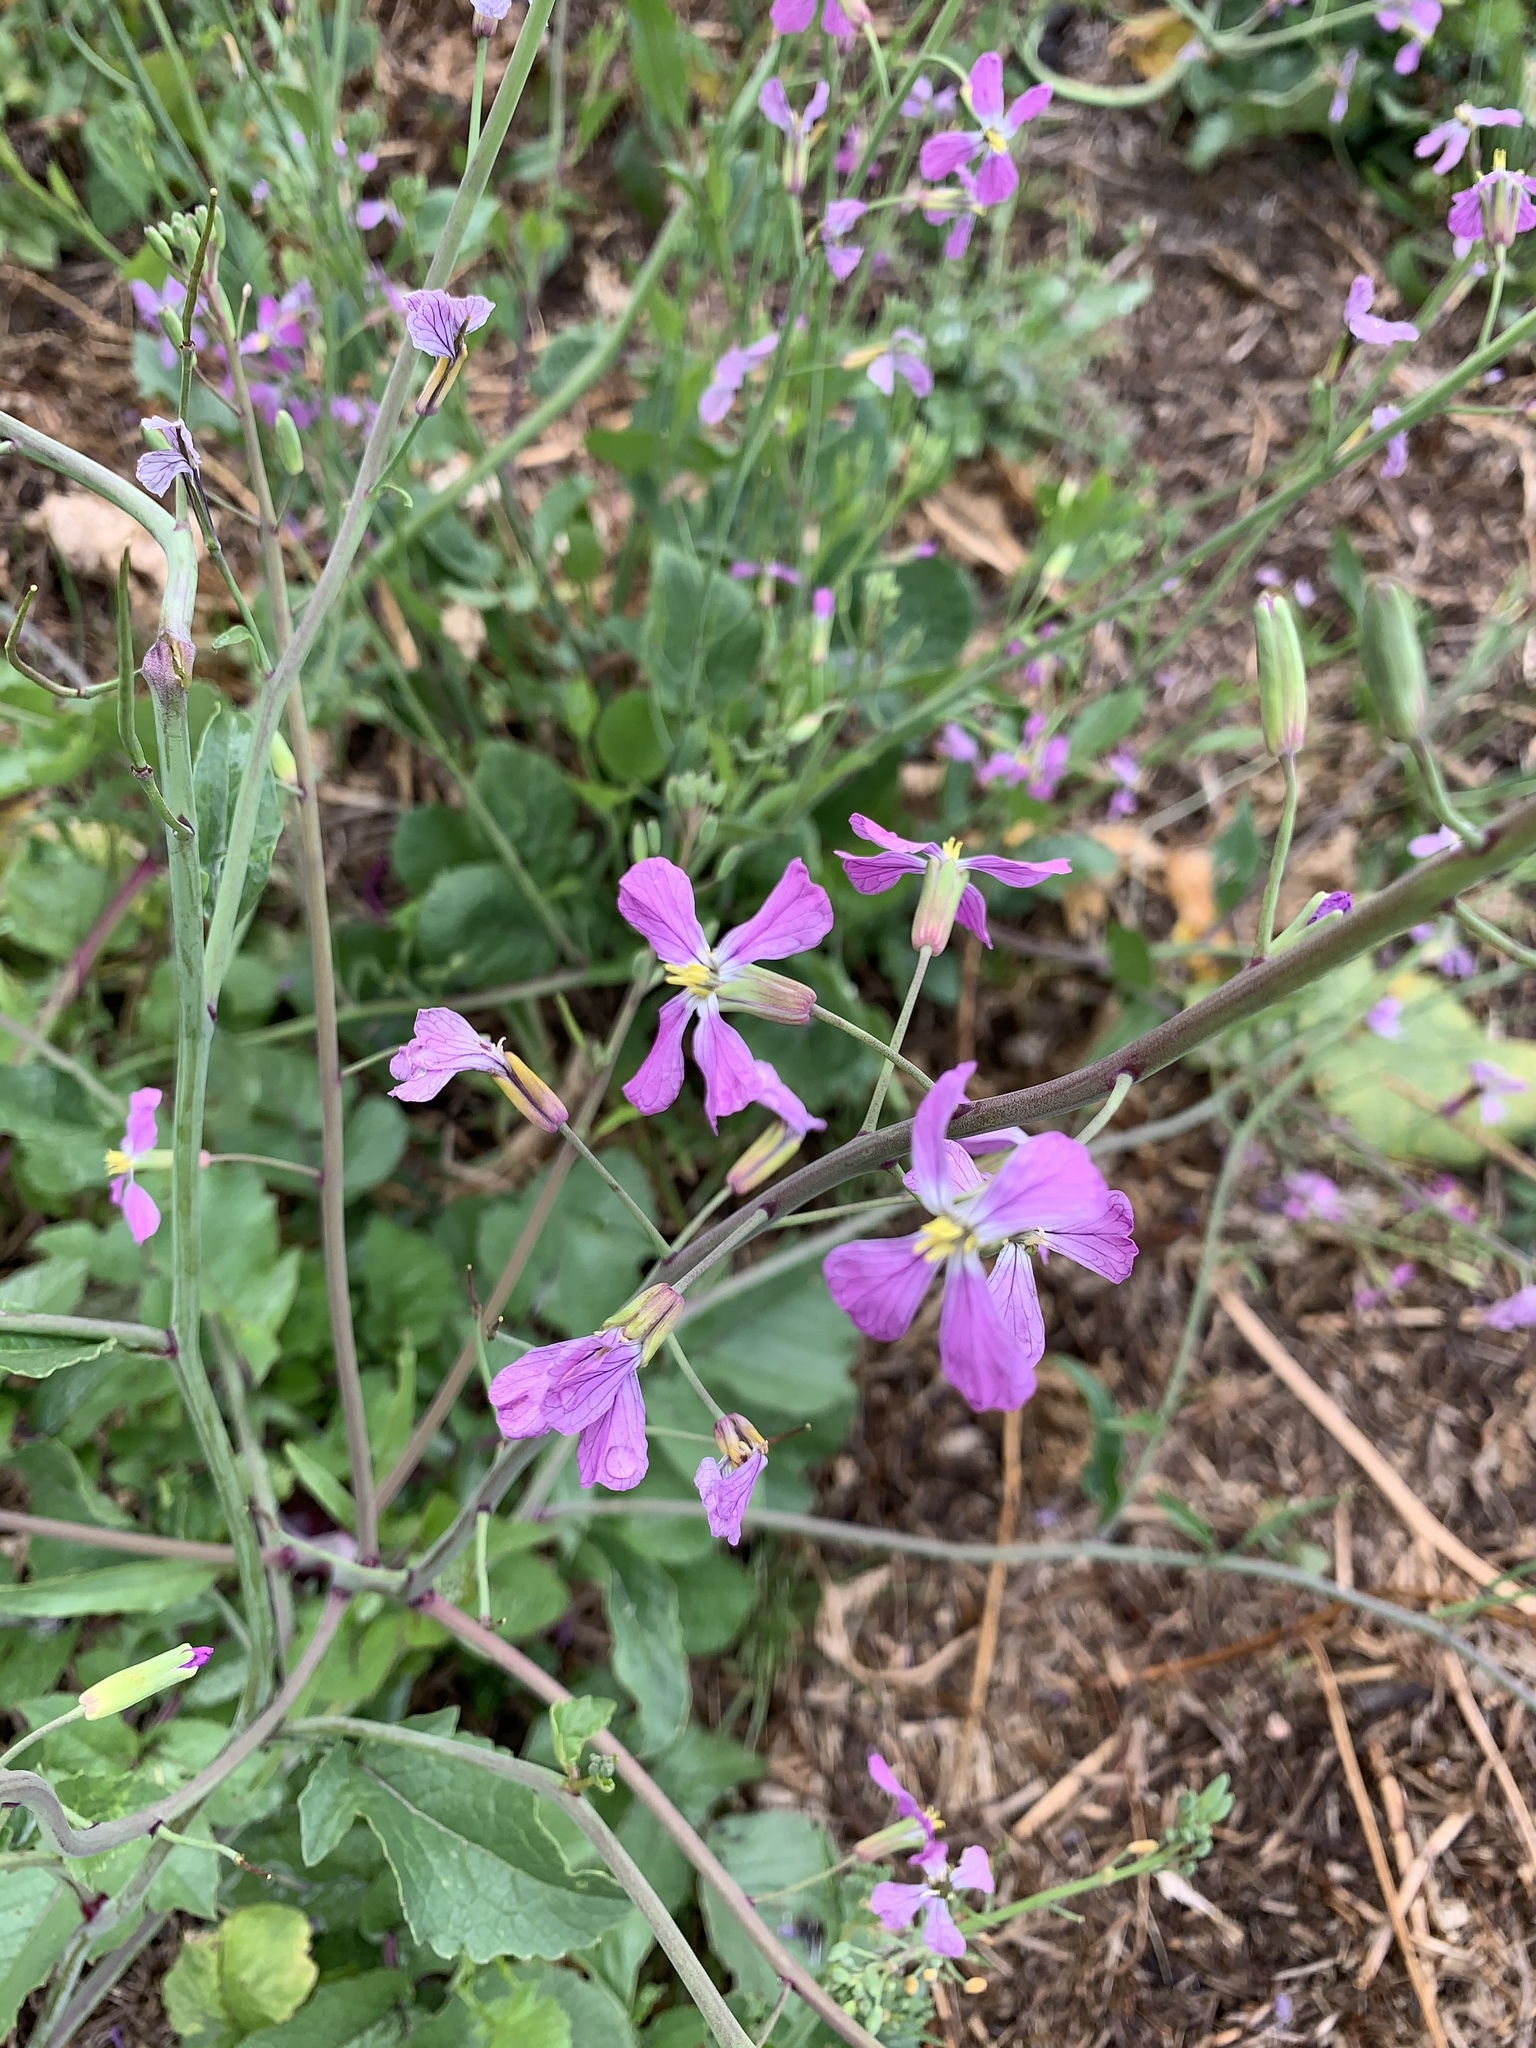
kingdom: Plantae
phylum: Tracheophyta
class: Magnoliopsida
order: Brassicales
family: Brassicaceae
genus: Raphanus
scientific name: Raphanus sativus
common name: Cultivated radish
